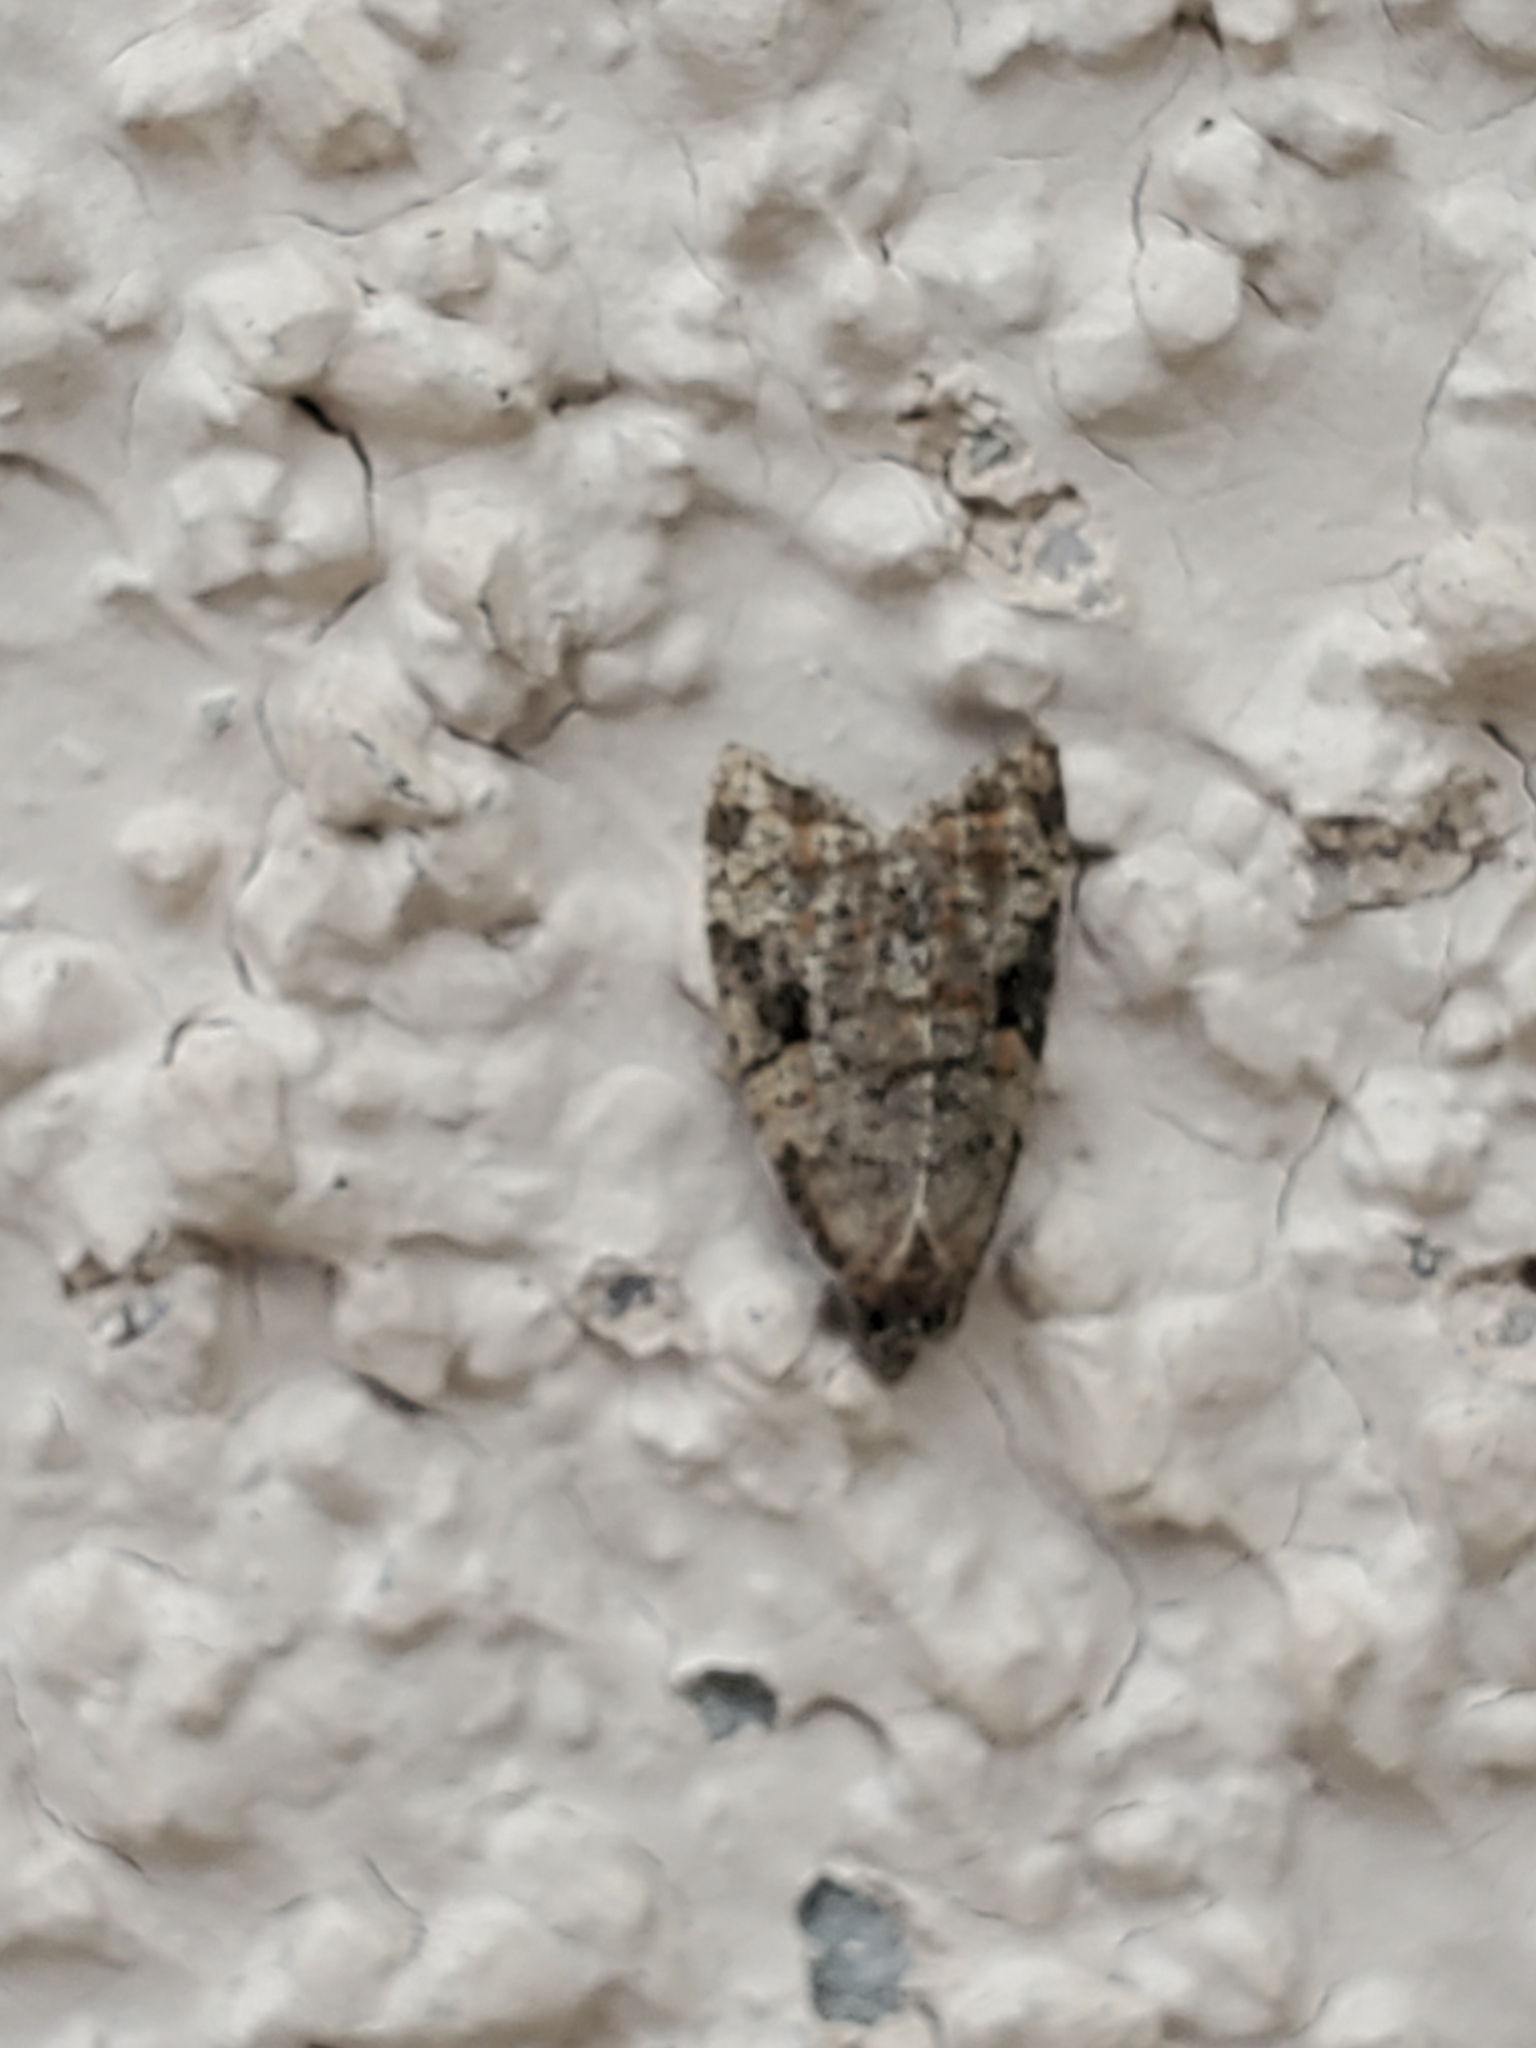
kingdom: Animalia
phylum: Arthropoda
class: Insecta
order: Lepidoptera
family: Tortricidae
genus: Anopina
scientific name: Anopina triangulana
